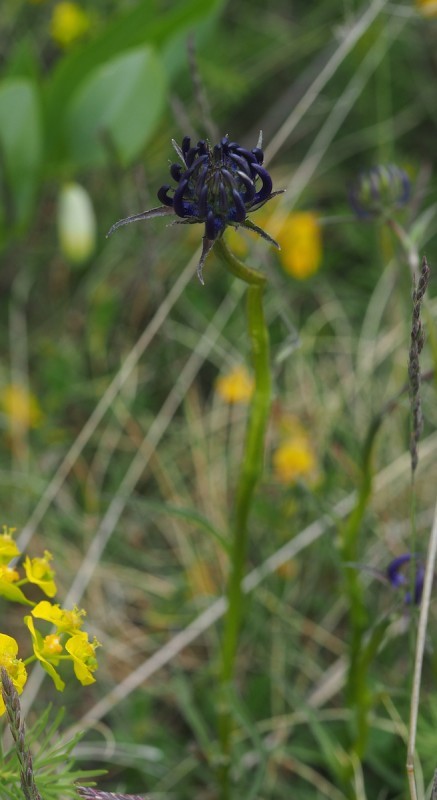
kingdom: Plantae
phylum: Tracheophyta
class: Magnoliopsida
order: Asterales
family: Campanulaceae
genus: Phyteuma
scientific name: Phyteuma orbiculare
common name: Round-headed rampion
